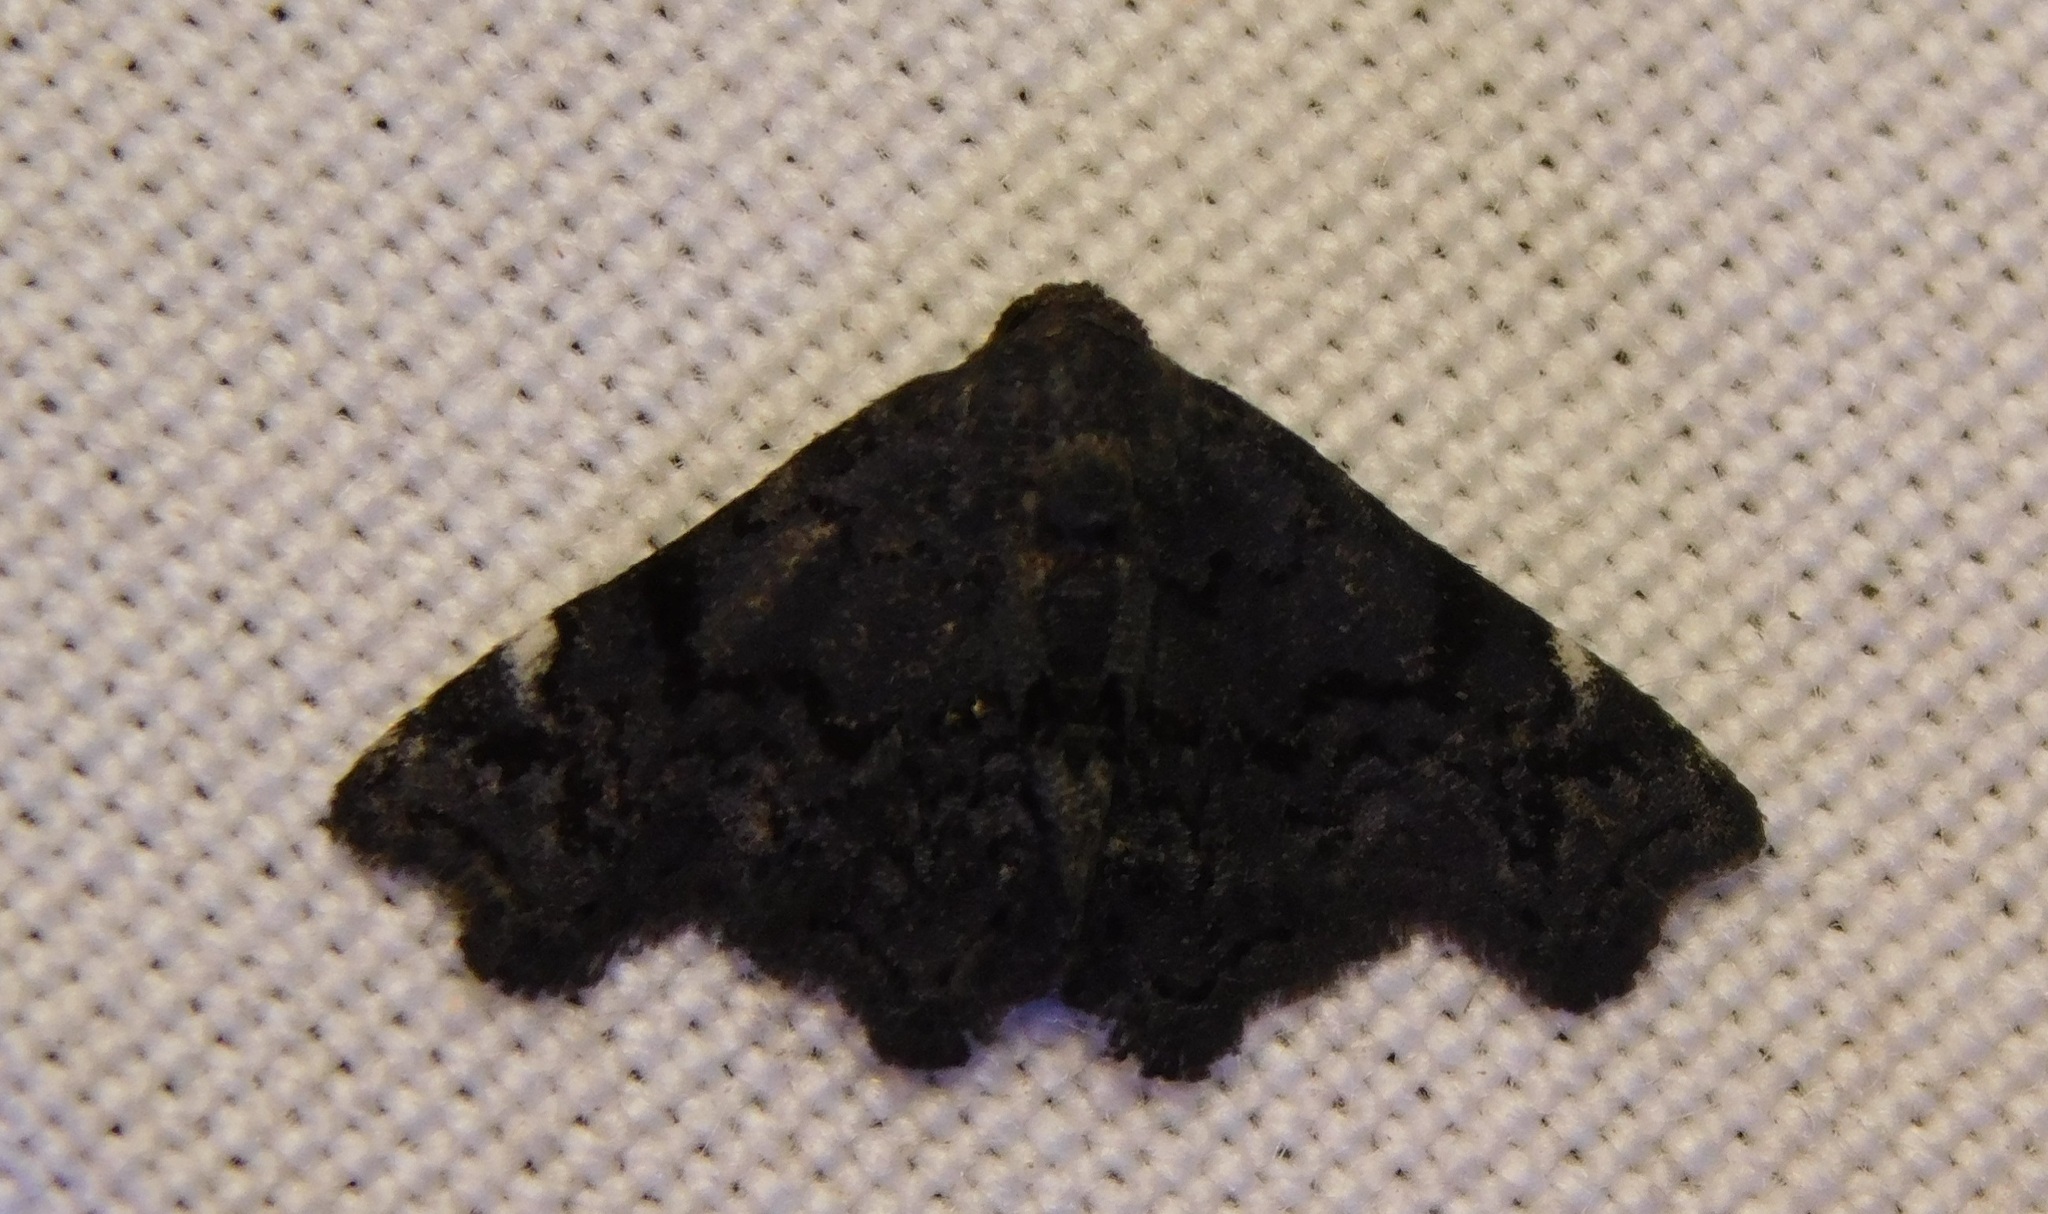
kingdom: Animalia
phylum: Arthropoda
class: Insecta
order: Lepidoptera
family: Noctuidae
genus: Mesophractias
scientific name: Mesophractias alstoni
